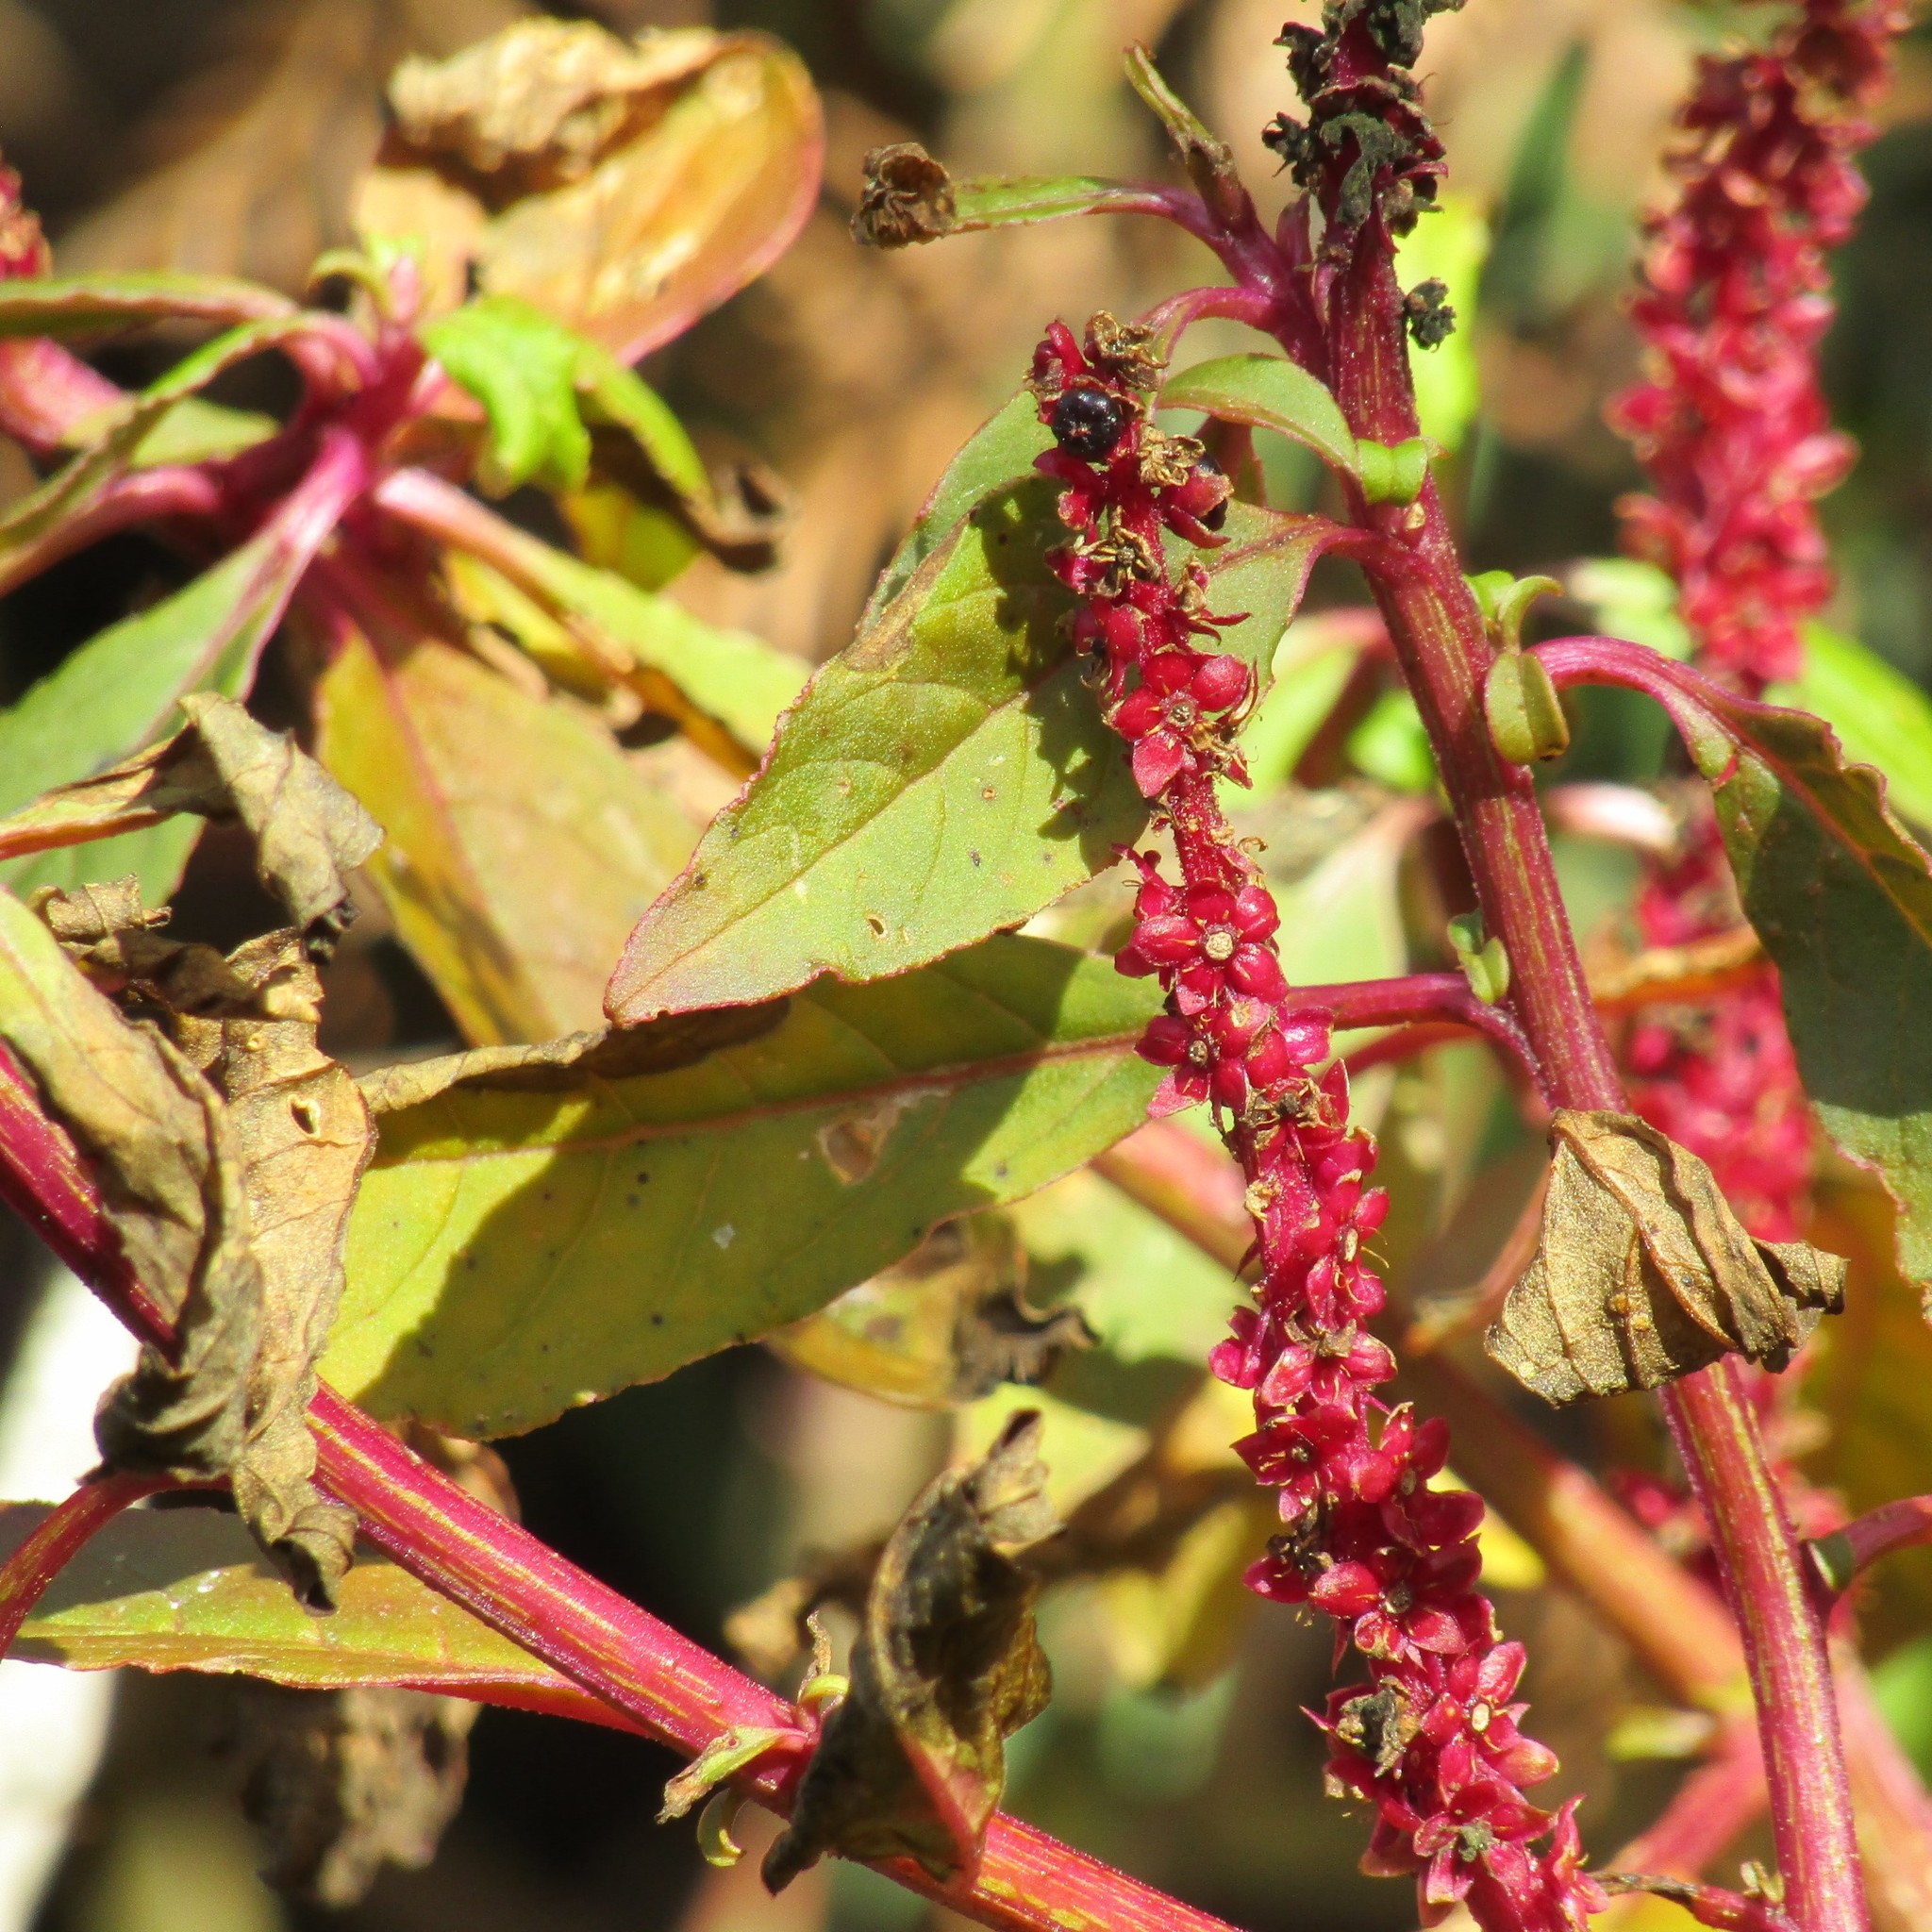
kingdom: Plantae
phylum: Tracheophyta
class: Magnoliopsida
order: Caryophyllales
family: Phytolaccaceae
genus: Phytolacca
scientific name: Phytolacca icosandra
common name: Button pokeweed
